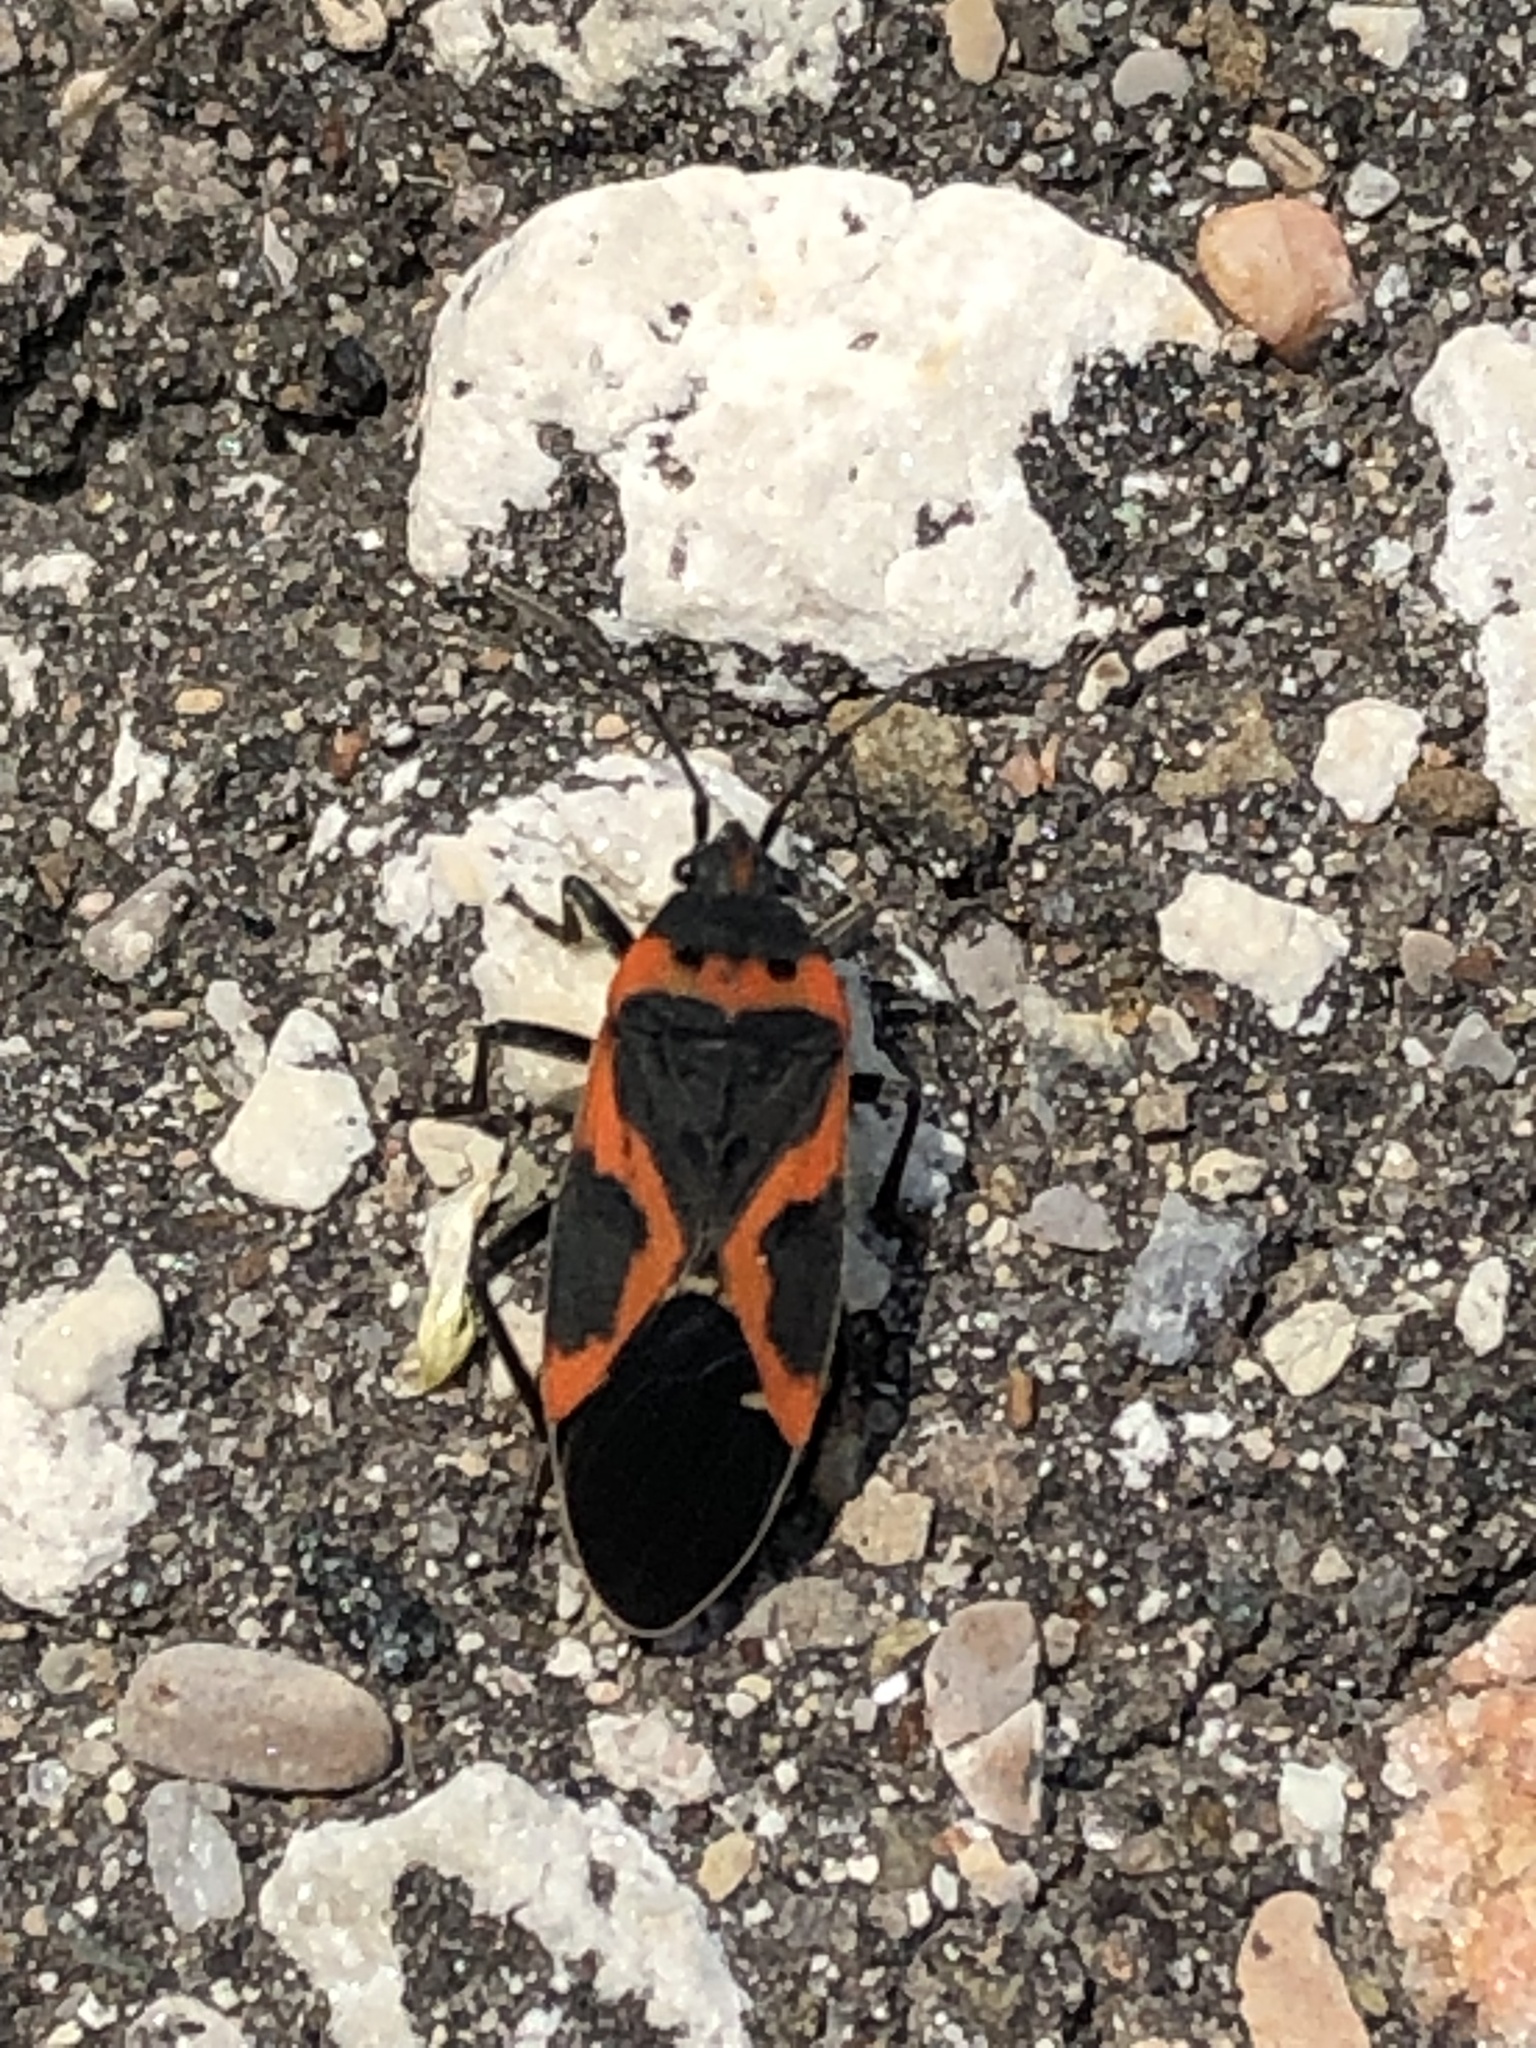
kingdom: Animalia
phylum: Arthropoda
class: Insecta
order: Hemiptera
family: Lygaeidae
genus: Lygaeus
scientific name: Lygaeus kalmii
